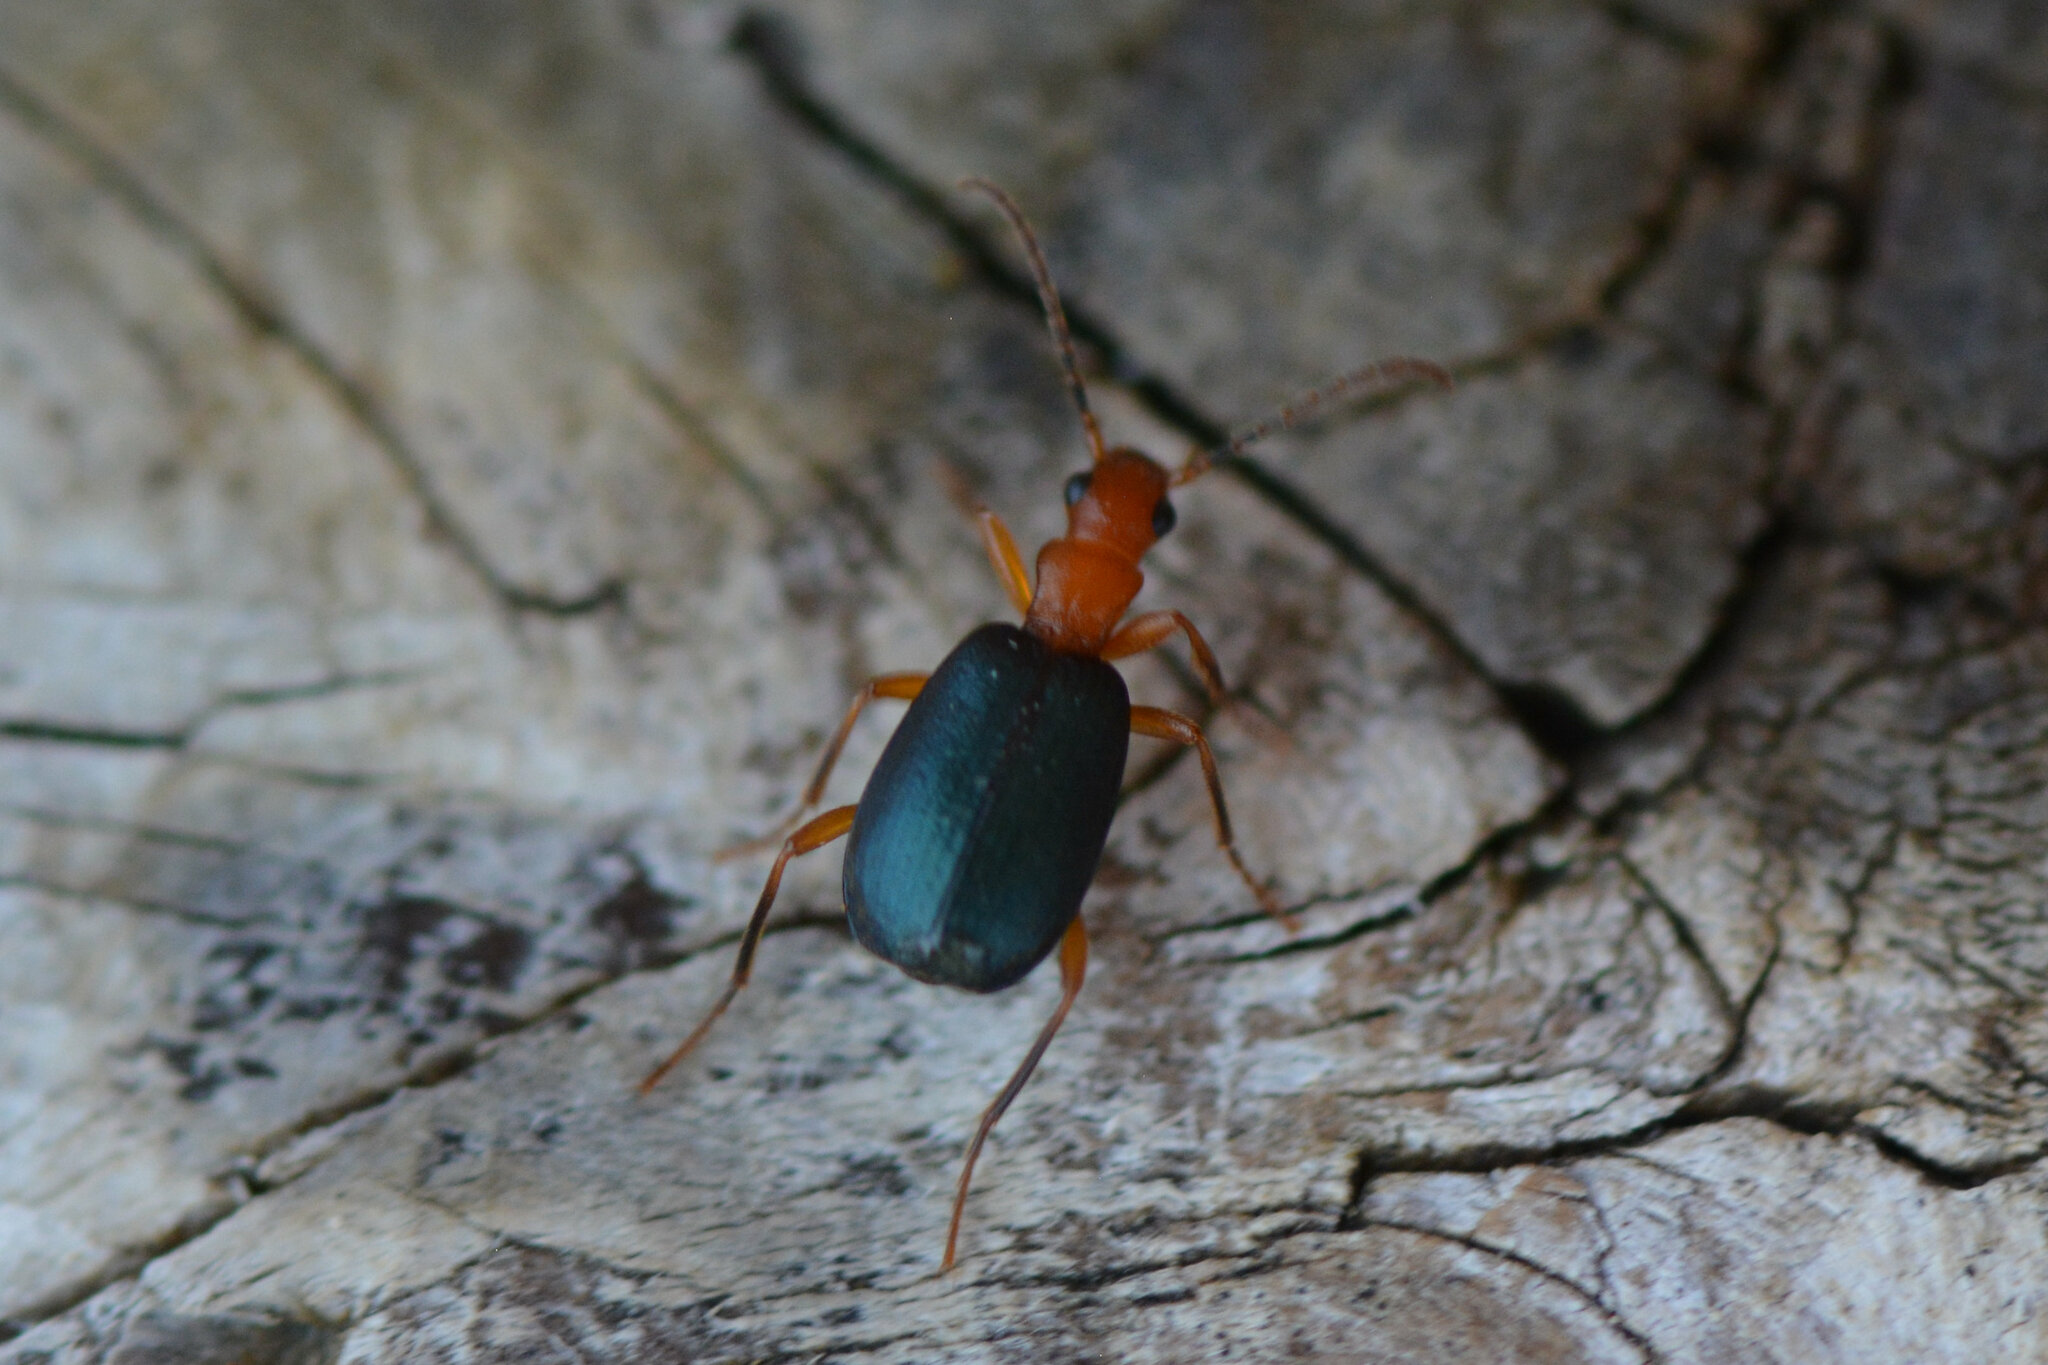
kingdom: Animalia
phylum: Arthropoda
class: Insecta
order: Coleoptera
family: Carabidae
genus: Brachinus
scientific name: Brachinus crepitans
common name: Bombadier beetle
